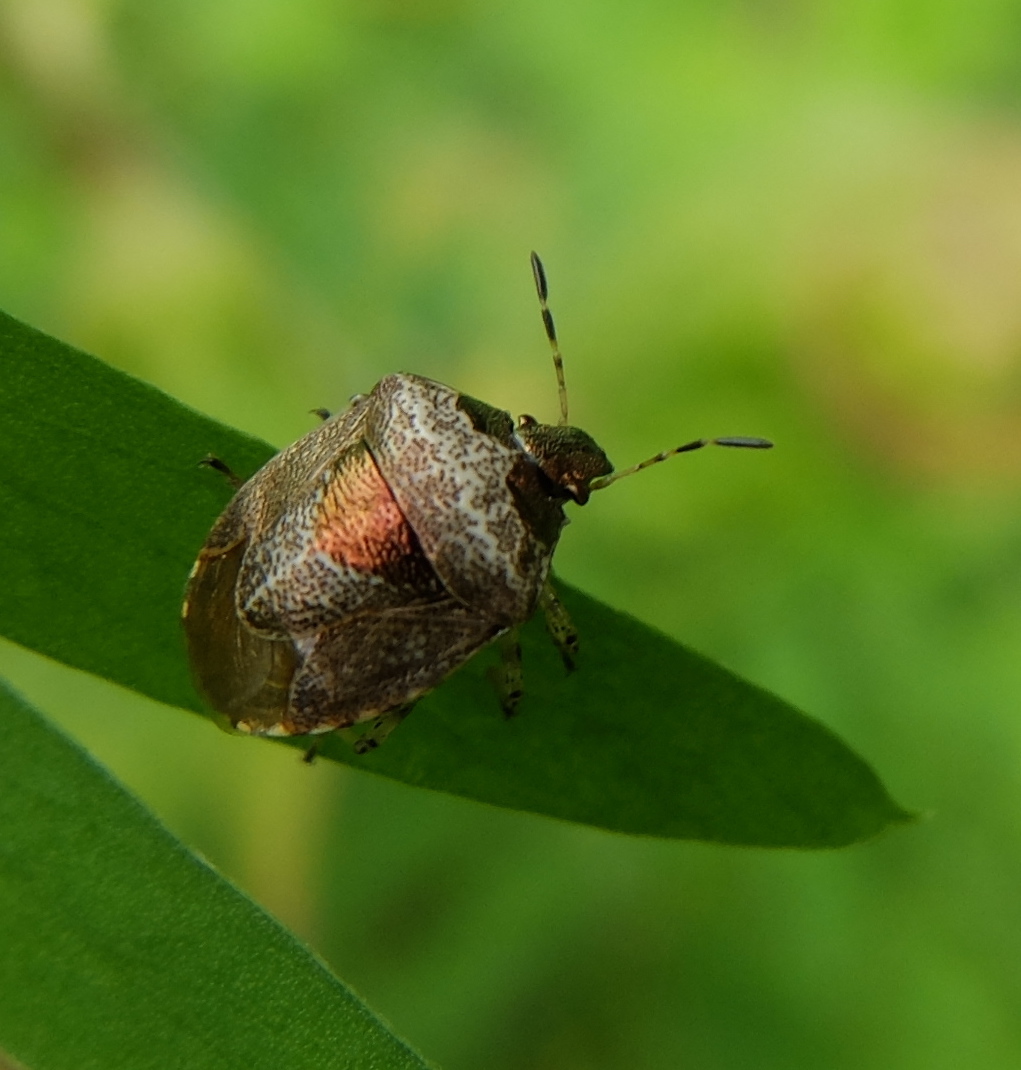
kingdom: Animalia
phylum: Arthropoda
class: Insecta
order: Hemiptera
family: Pentatomidae
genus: Eysarcoris
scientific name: Eysarcoris venustissimus
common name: Woundwort shieldbug
